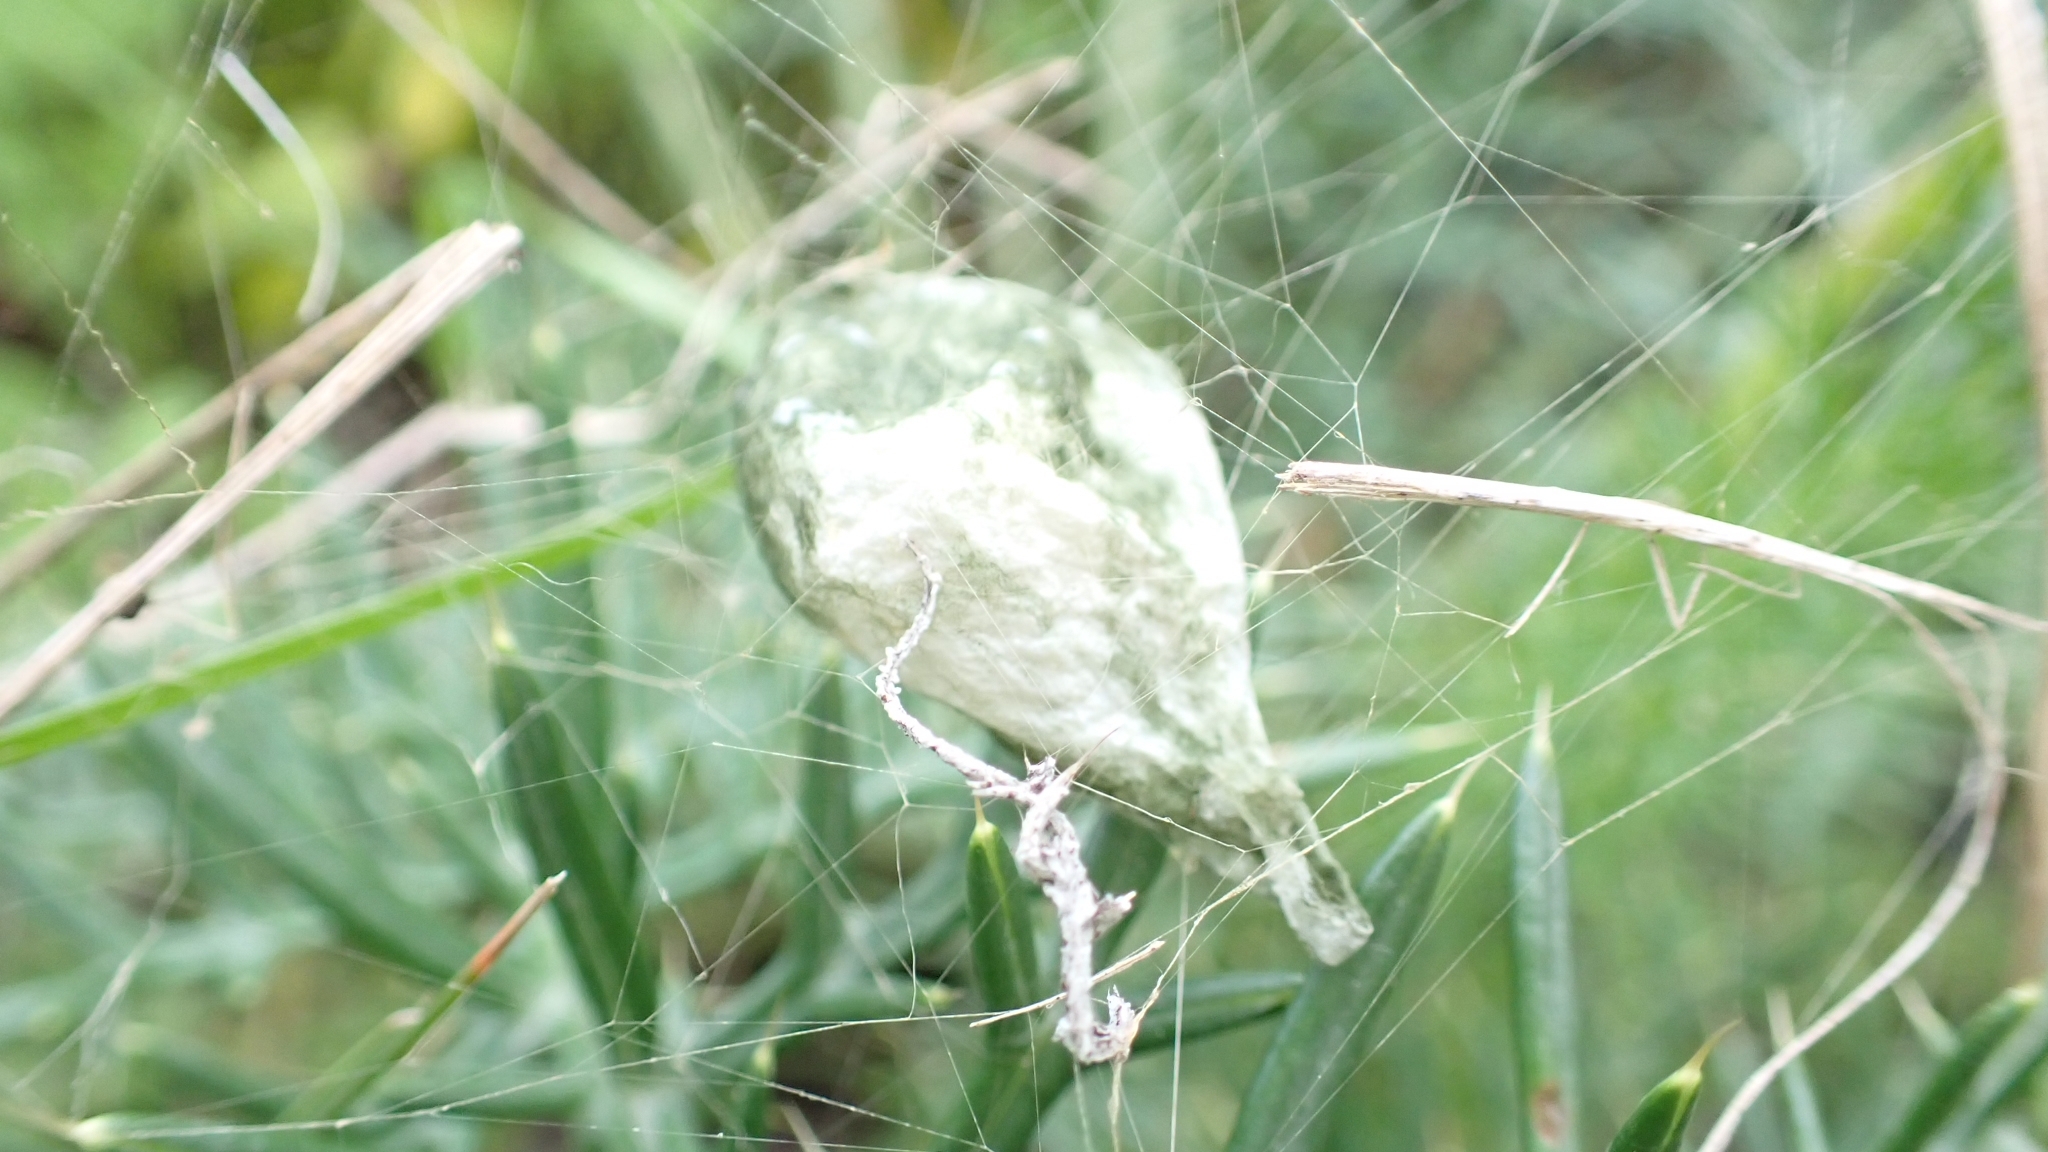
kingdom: Animalia
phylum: Arthropoda
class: Arachnida
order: Araneae
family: Araneidae
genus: Argiope
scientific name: Argiope trifasciata
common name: Banded garden spider
